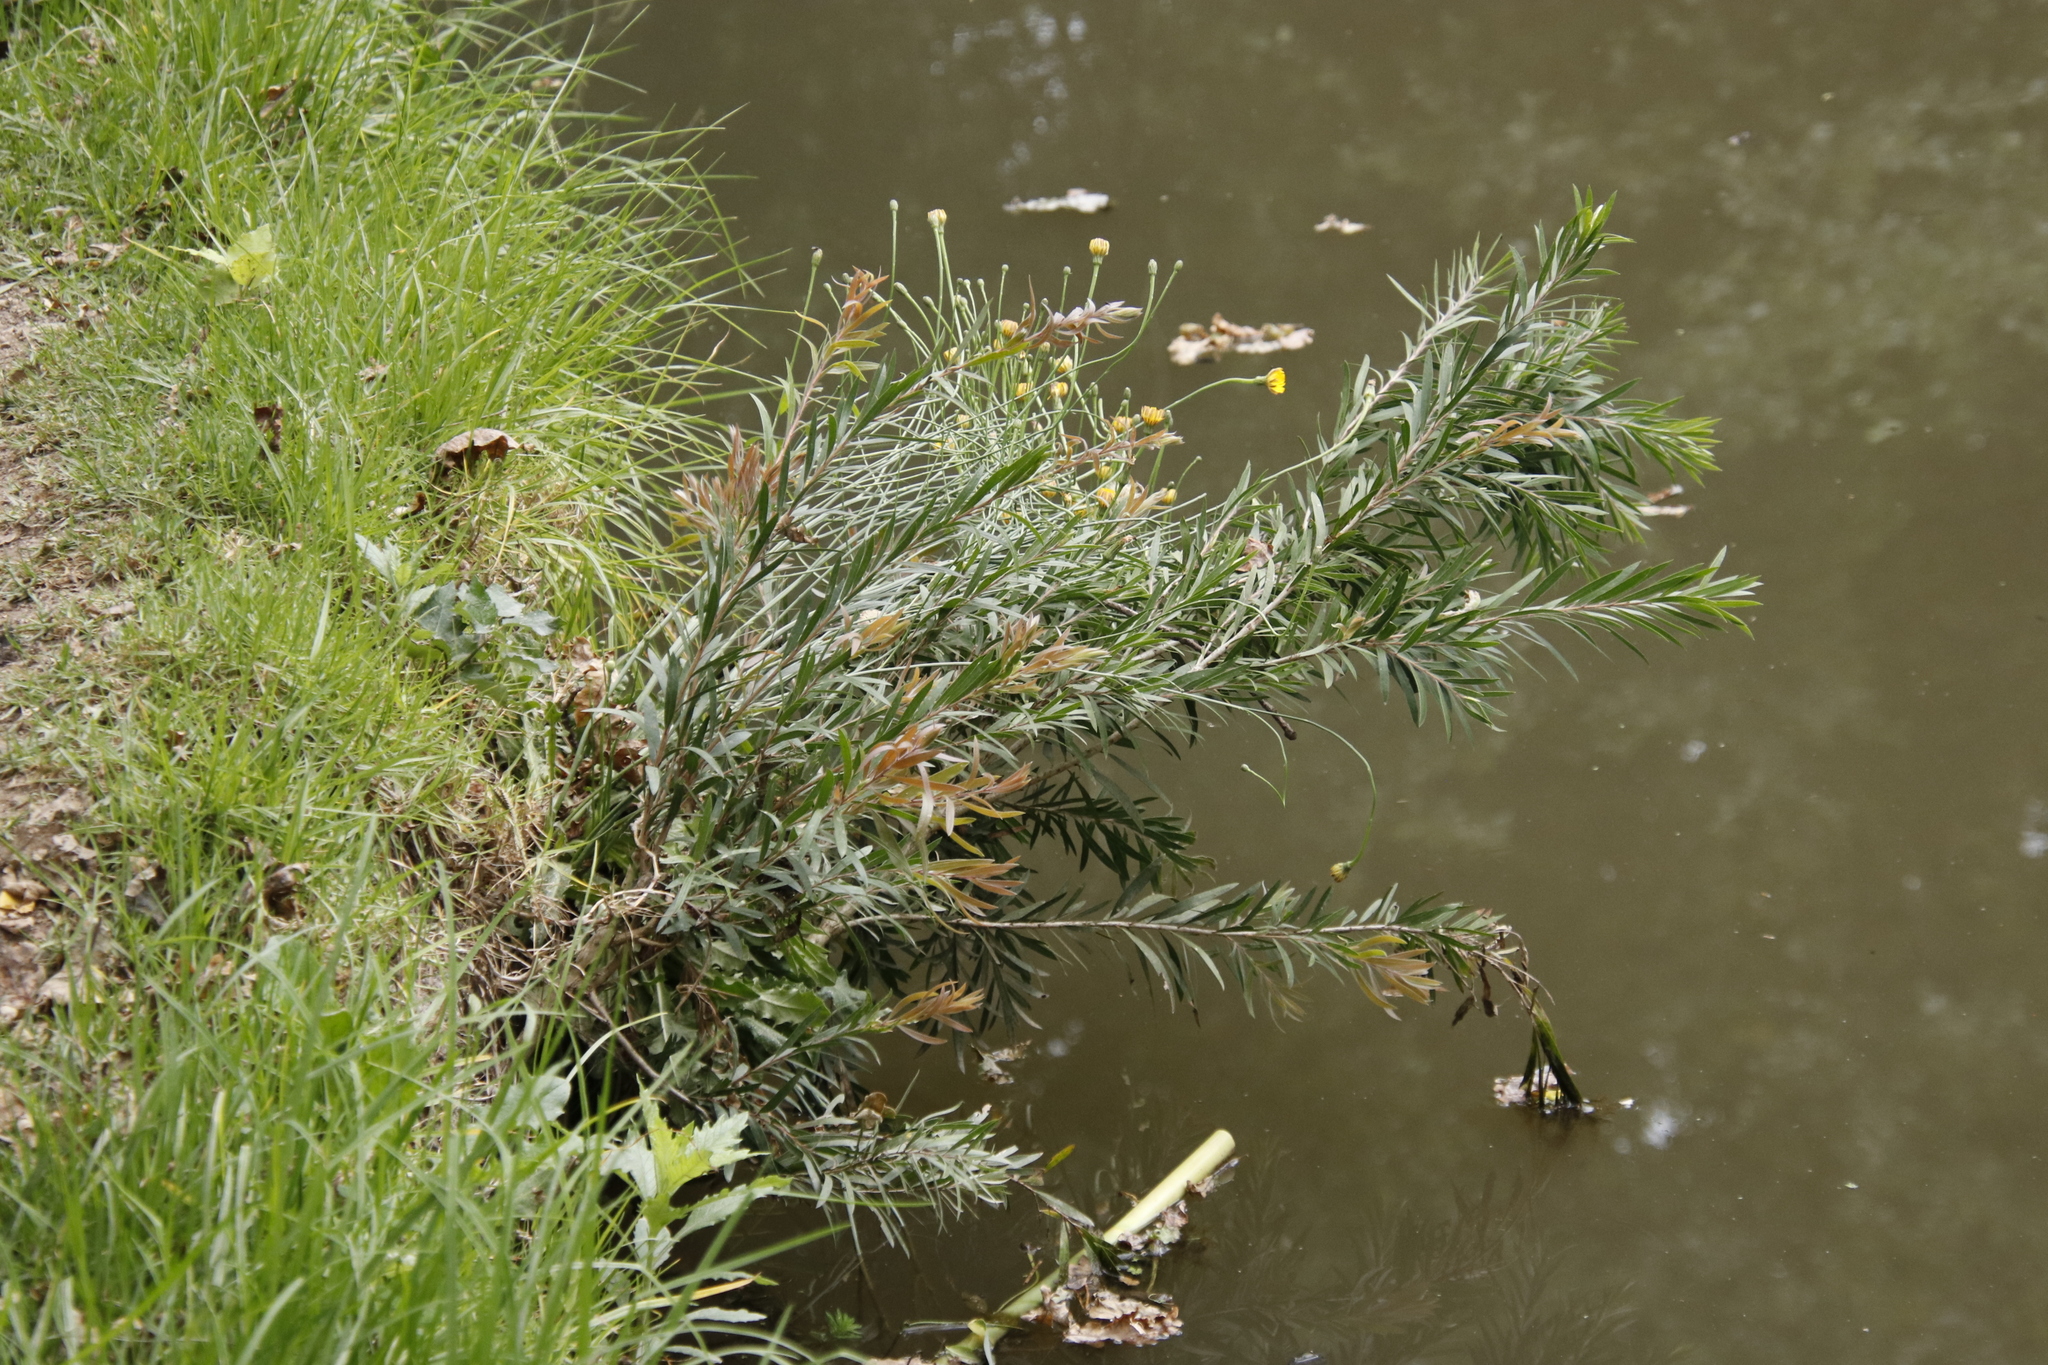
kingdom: Plantae
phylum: Tracheophyta
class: Magnoliopsida
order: Myrtales
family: Myrtaceae
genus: Callistemon
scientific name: Callistemon viminalis
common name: Drooping bottlebrush
